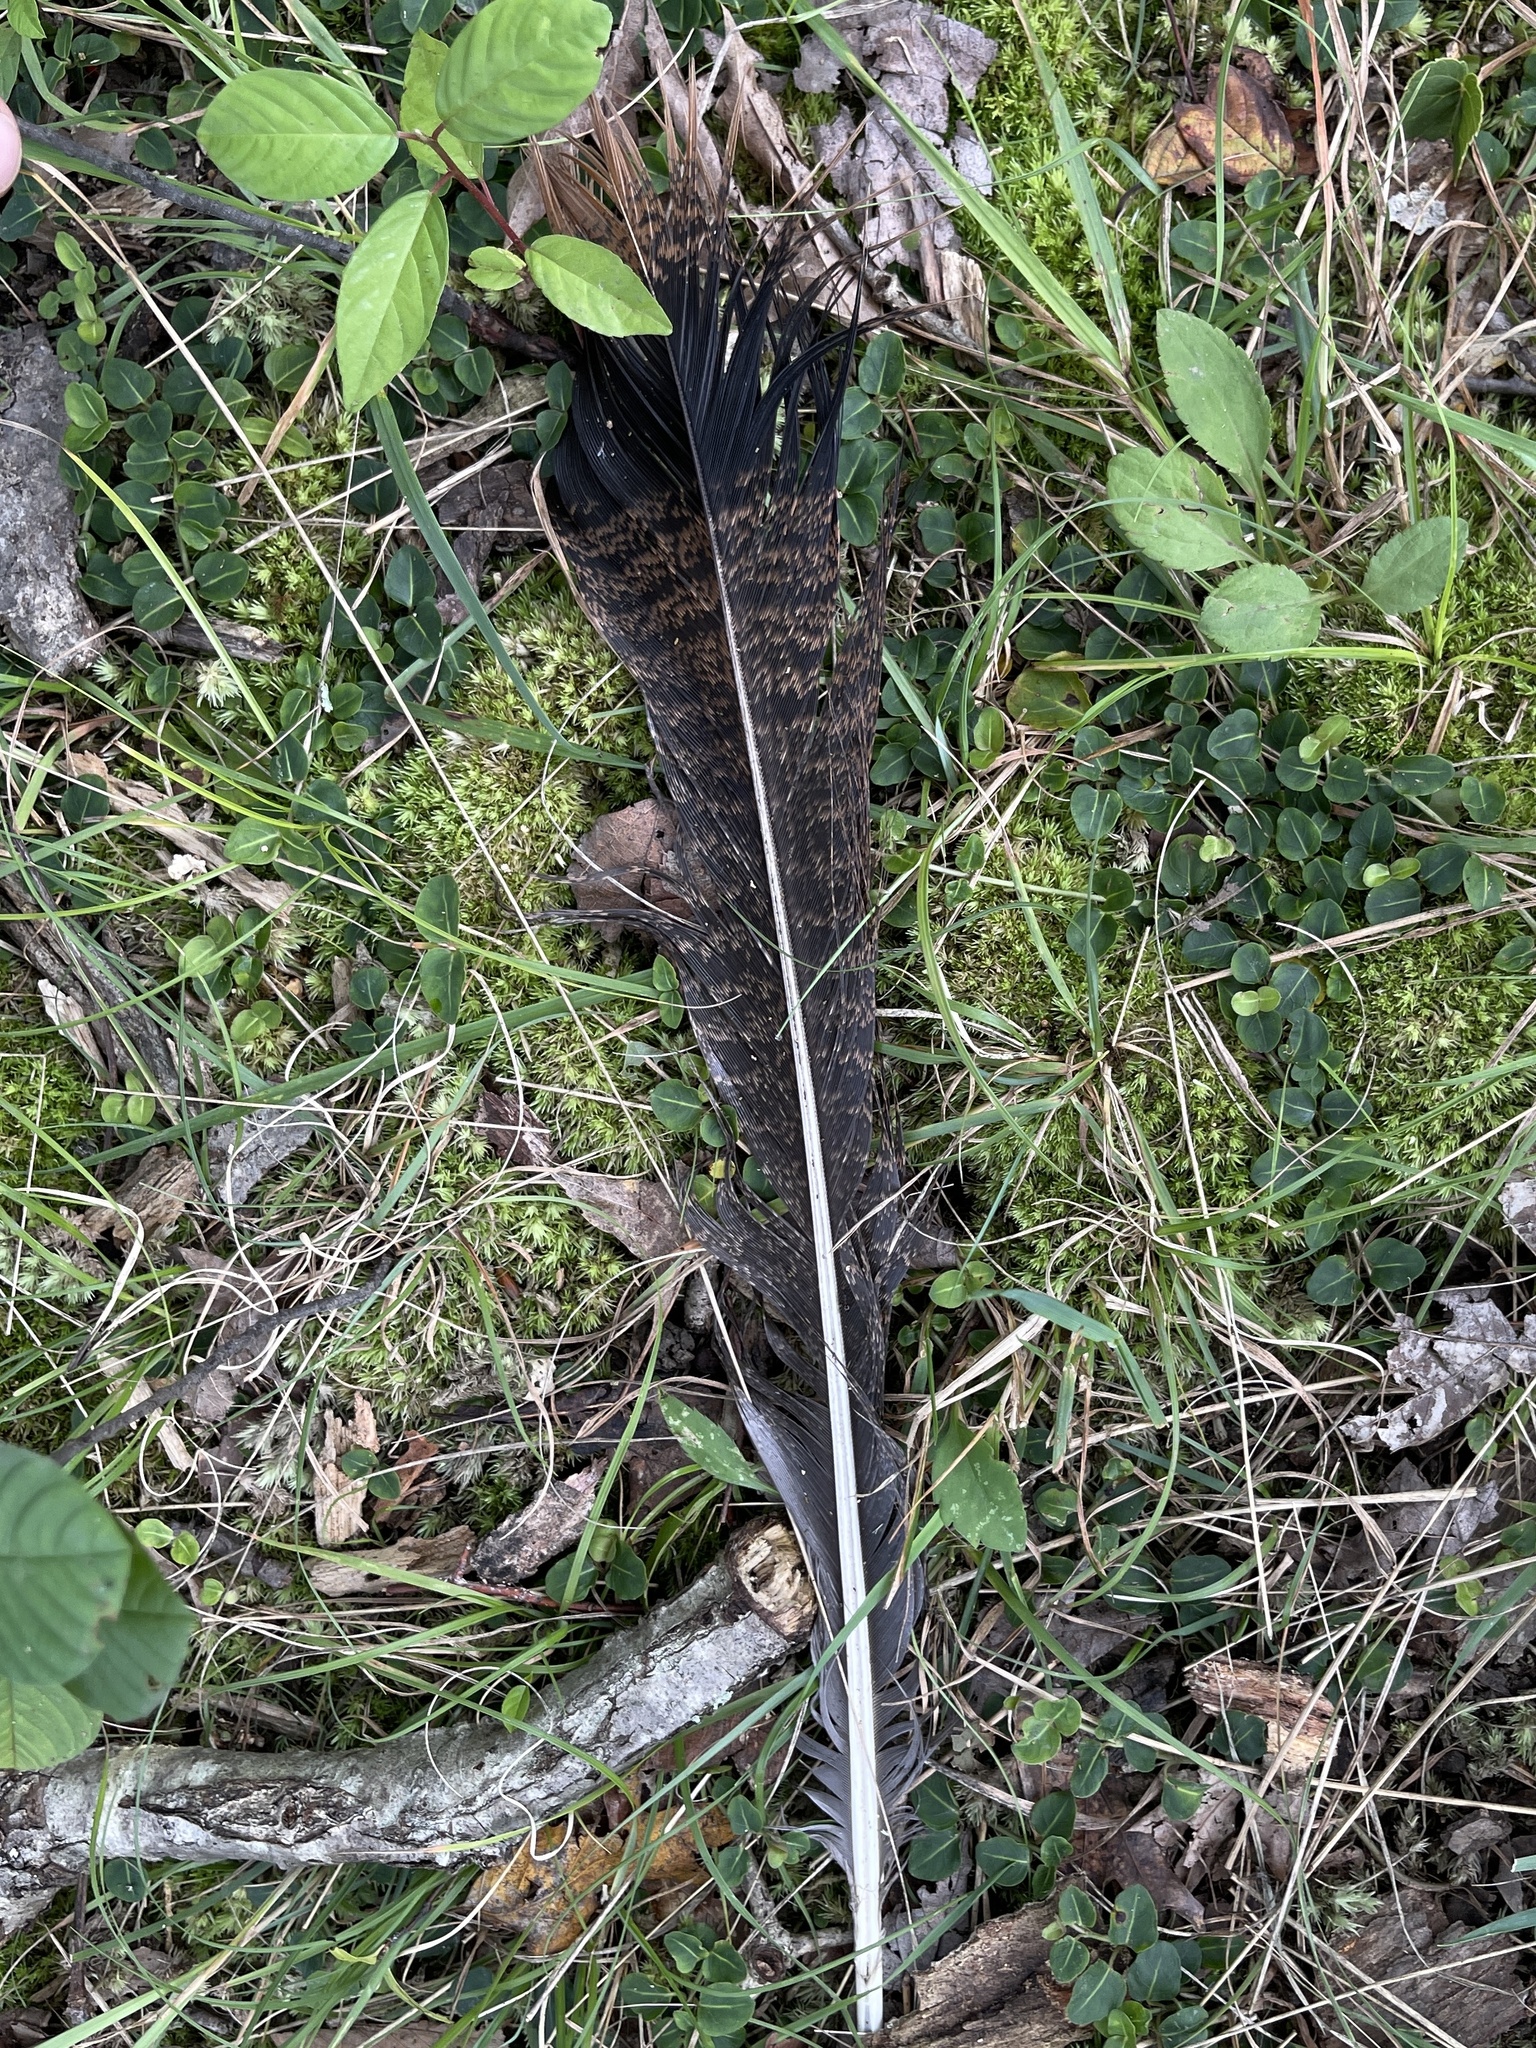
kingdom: Animalia
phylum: Chordata
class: Aves
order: Galliformes
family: Phasianidae
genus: Meleagris
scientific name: Meleagris gallopavo
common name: Wild turkey
